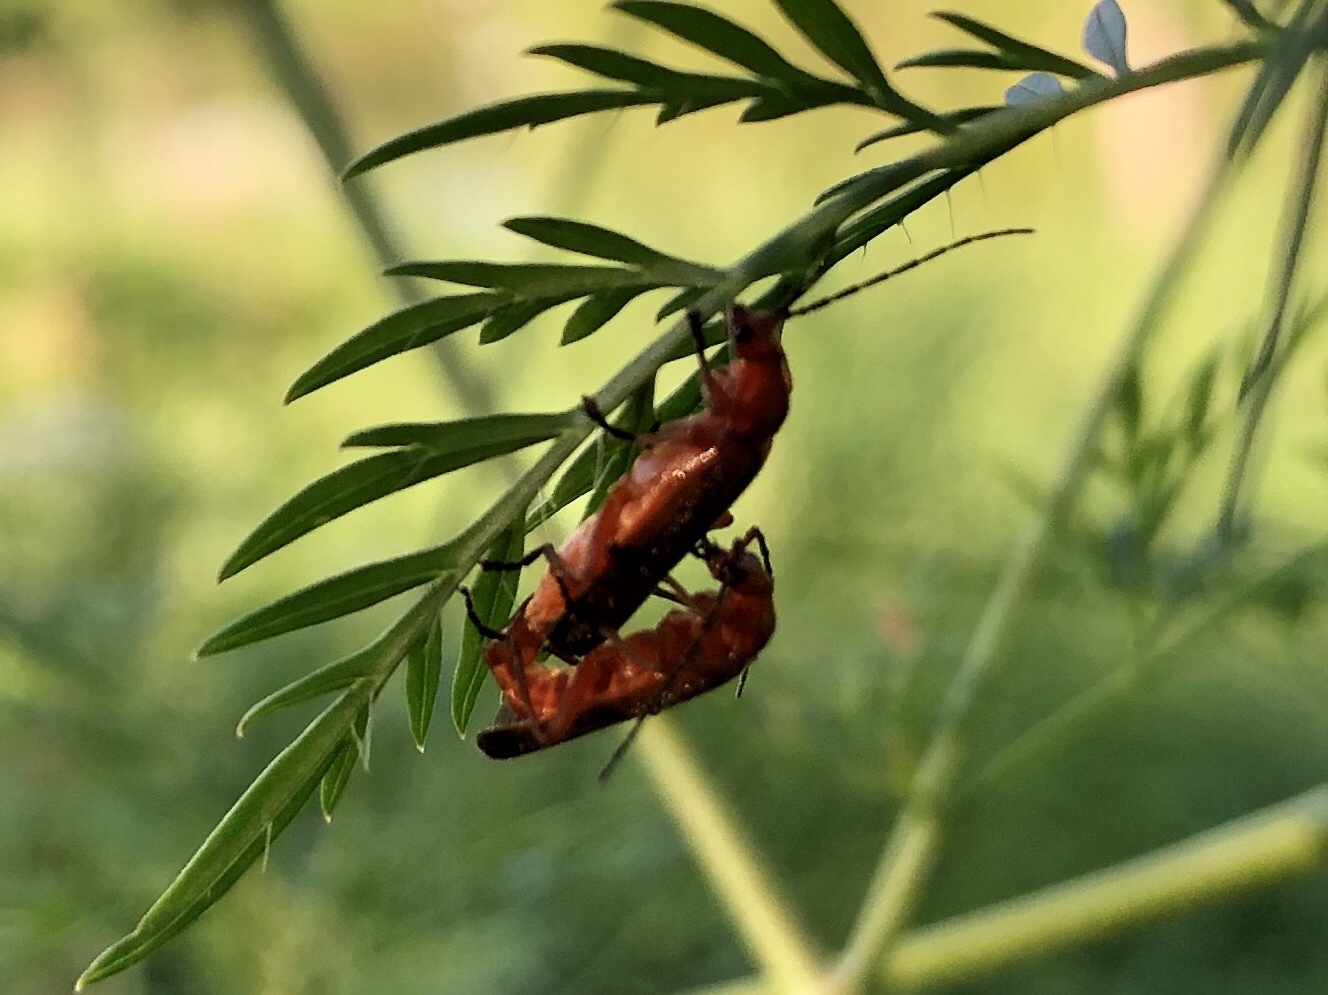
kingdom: Animalia
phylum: Arthropoda
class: Insecta
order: Coleoptera
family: Cantharidae
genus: Rhagonycha
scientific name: Rhagonycha fulva
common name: Common red soldier beetle
